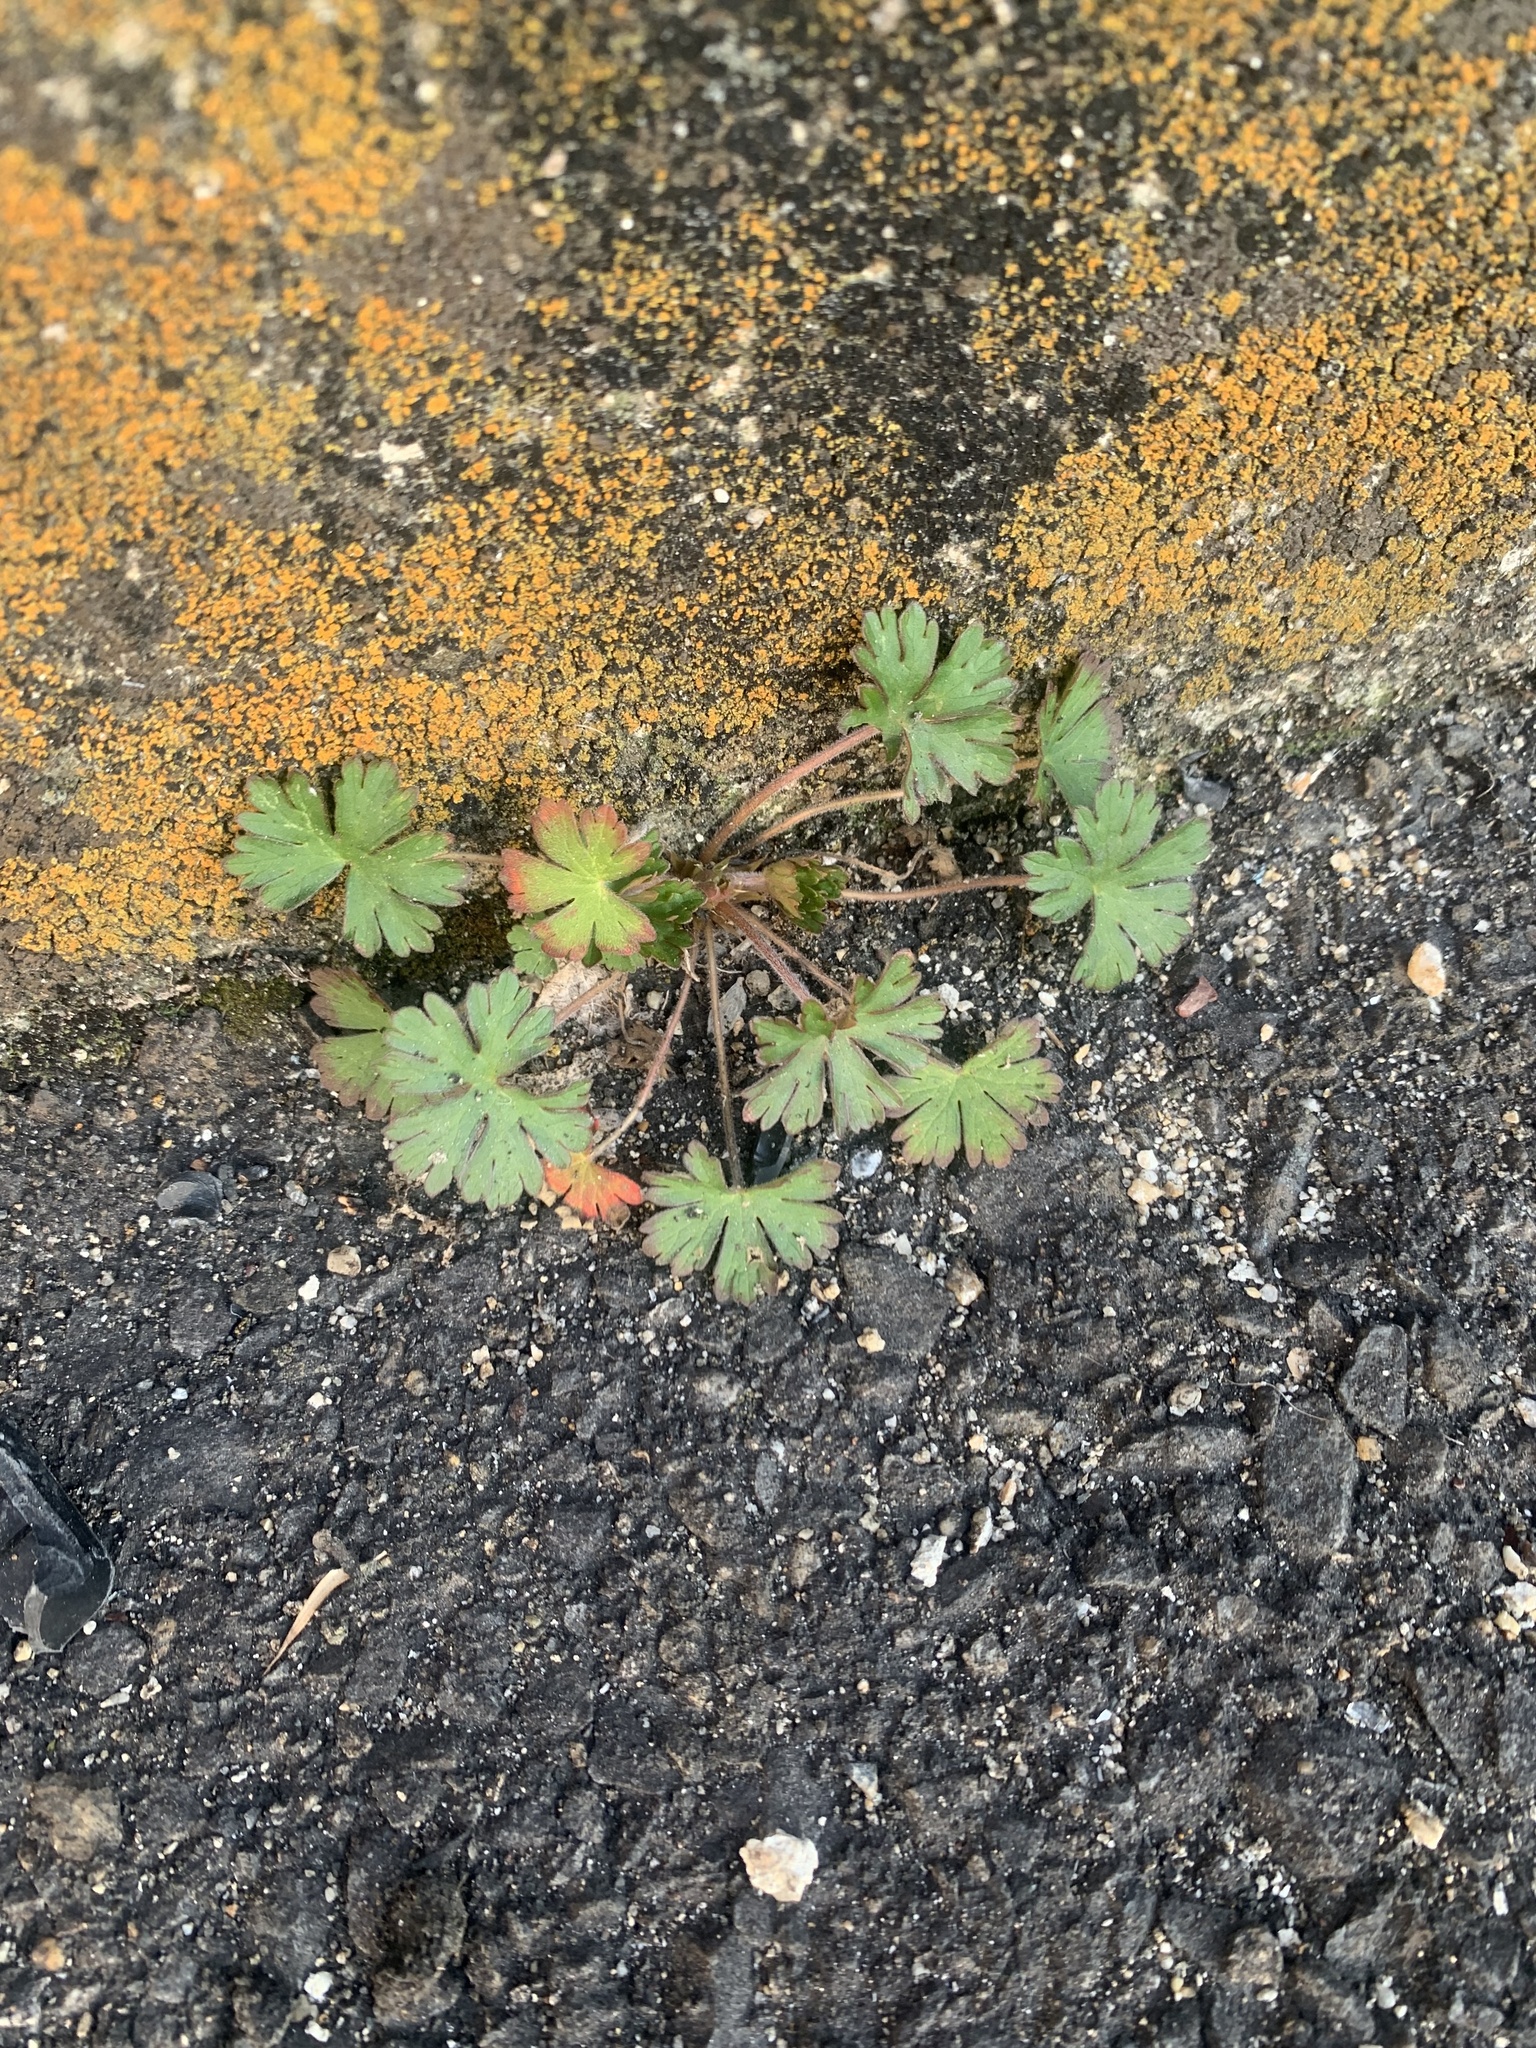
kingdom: Plantae
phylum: Tracheophyta
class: Magnoliopsida
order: Geraniales
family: Geraniaceae
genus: Geranium
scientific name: Geranium carolinianum
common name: Carolina crane's-bill
